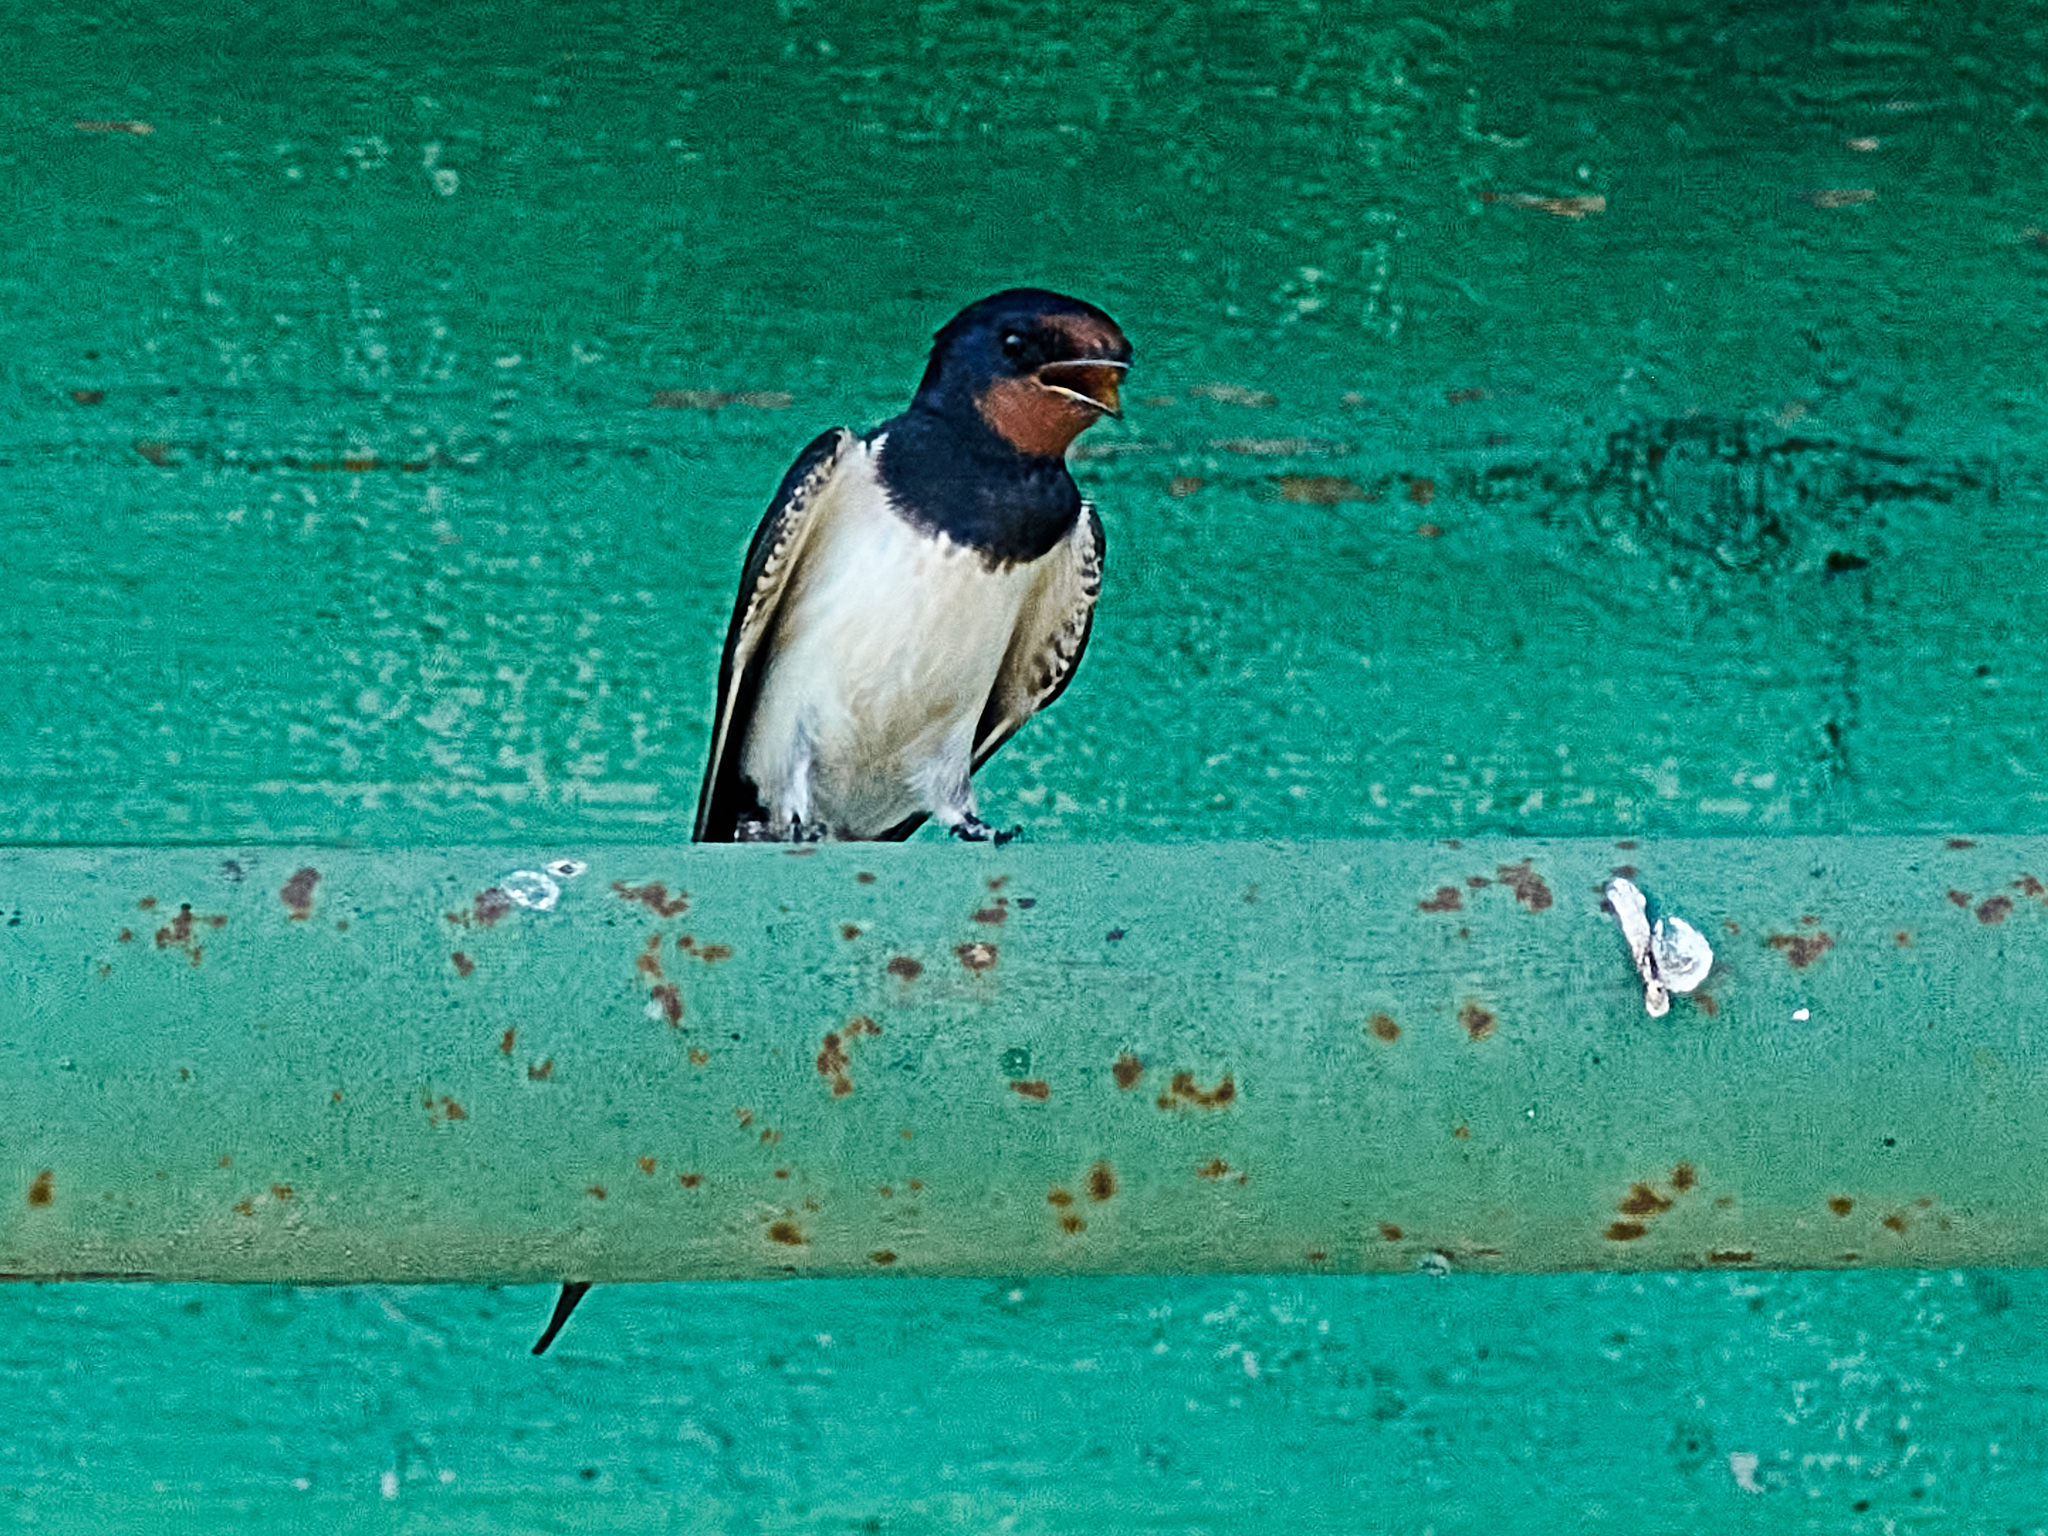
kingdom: Animalia
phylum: Chordata
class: Aves
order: Passeriformes
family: Hirundinidae
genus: Hirundo
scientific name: Hirundo rustica
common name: Barn swallow
